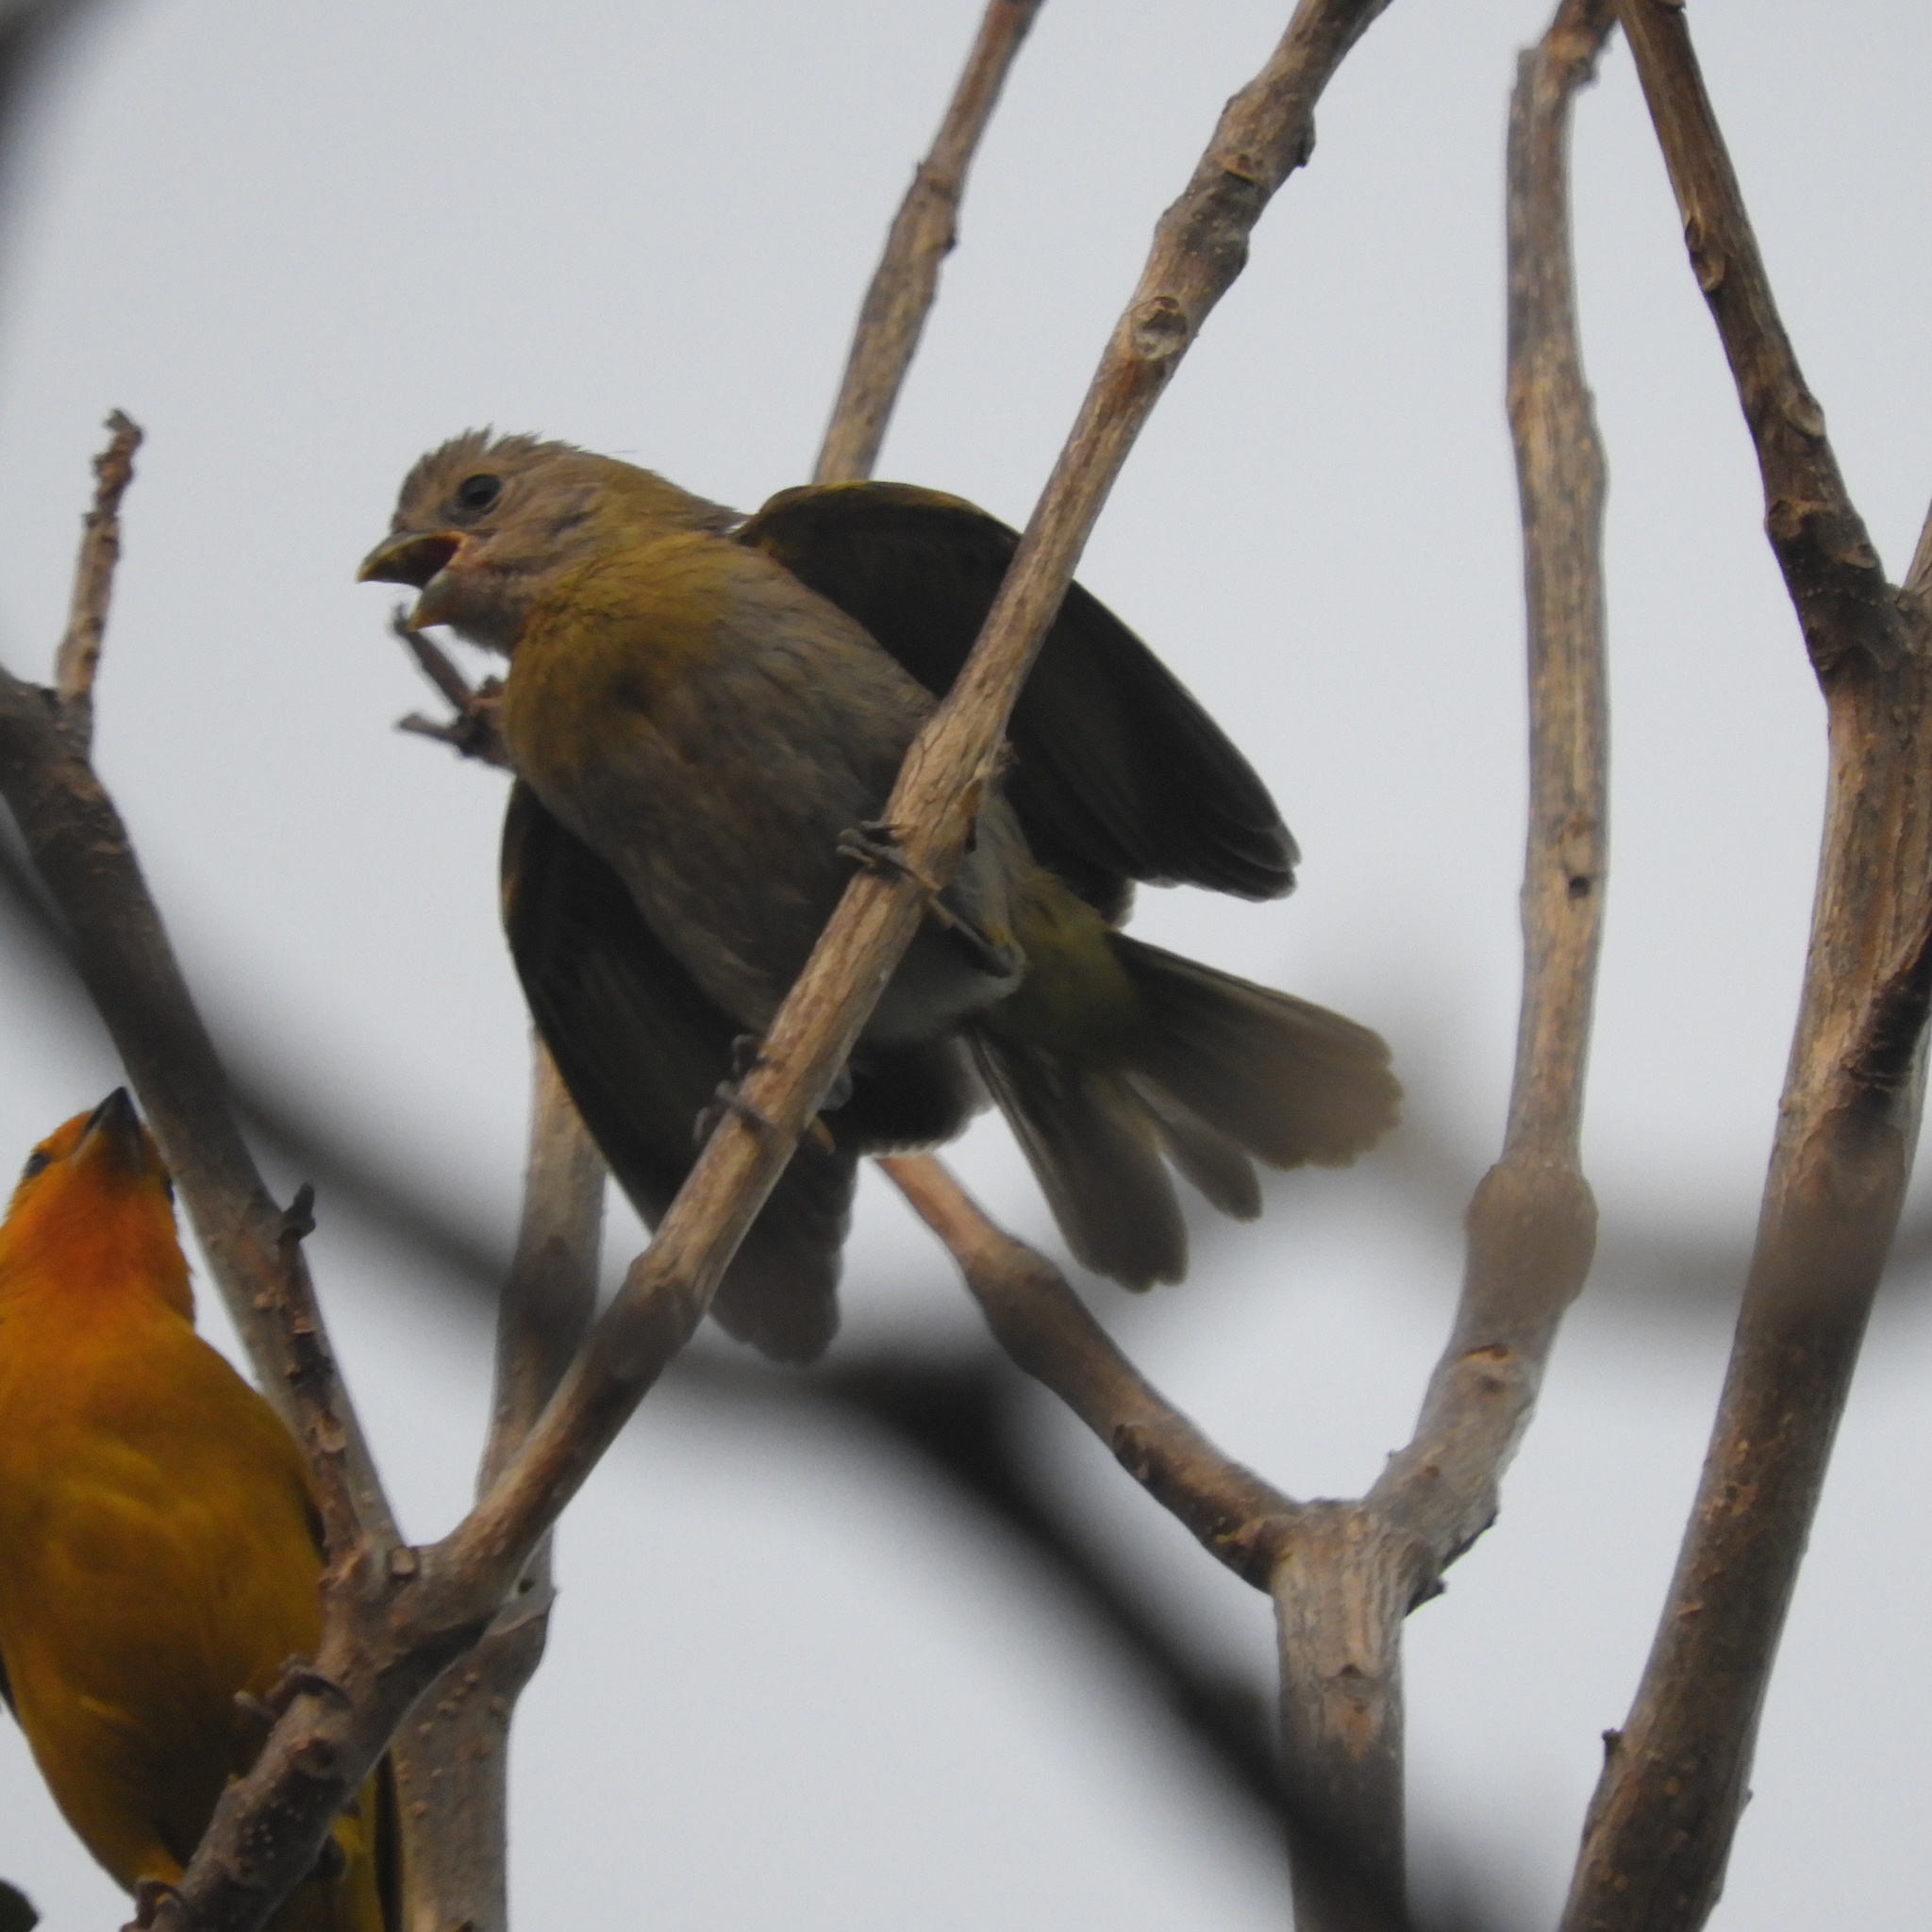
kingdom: Animalia
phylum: Chordata
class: Aves
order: Passeriformes
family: Thraupidae
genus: Sicalis
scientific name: Sicalis flaveola
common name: Saffron finch
